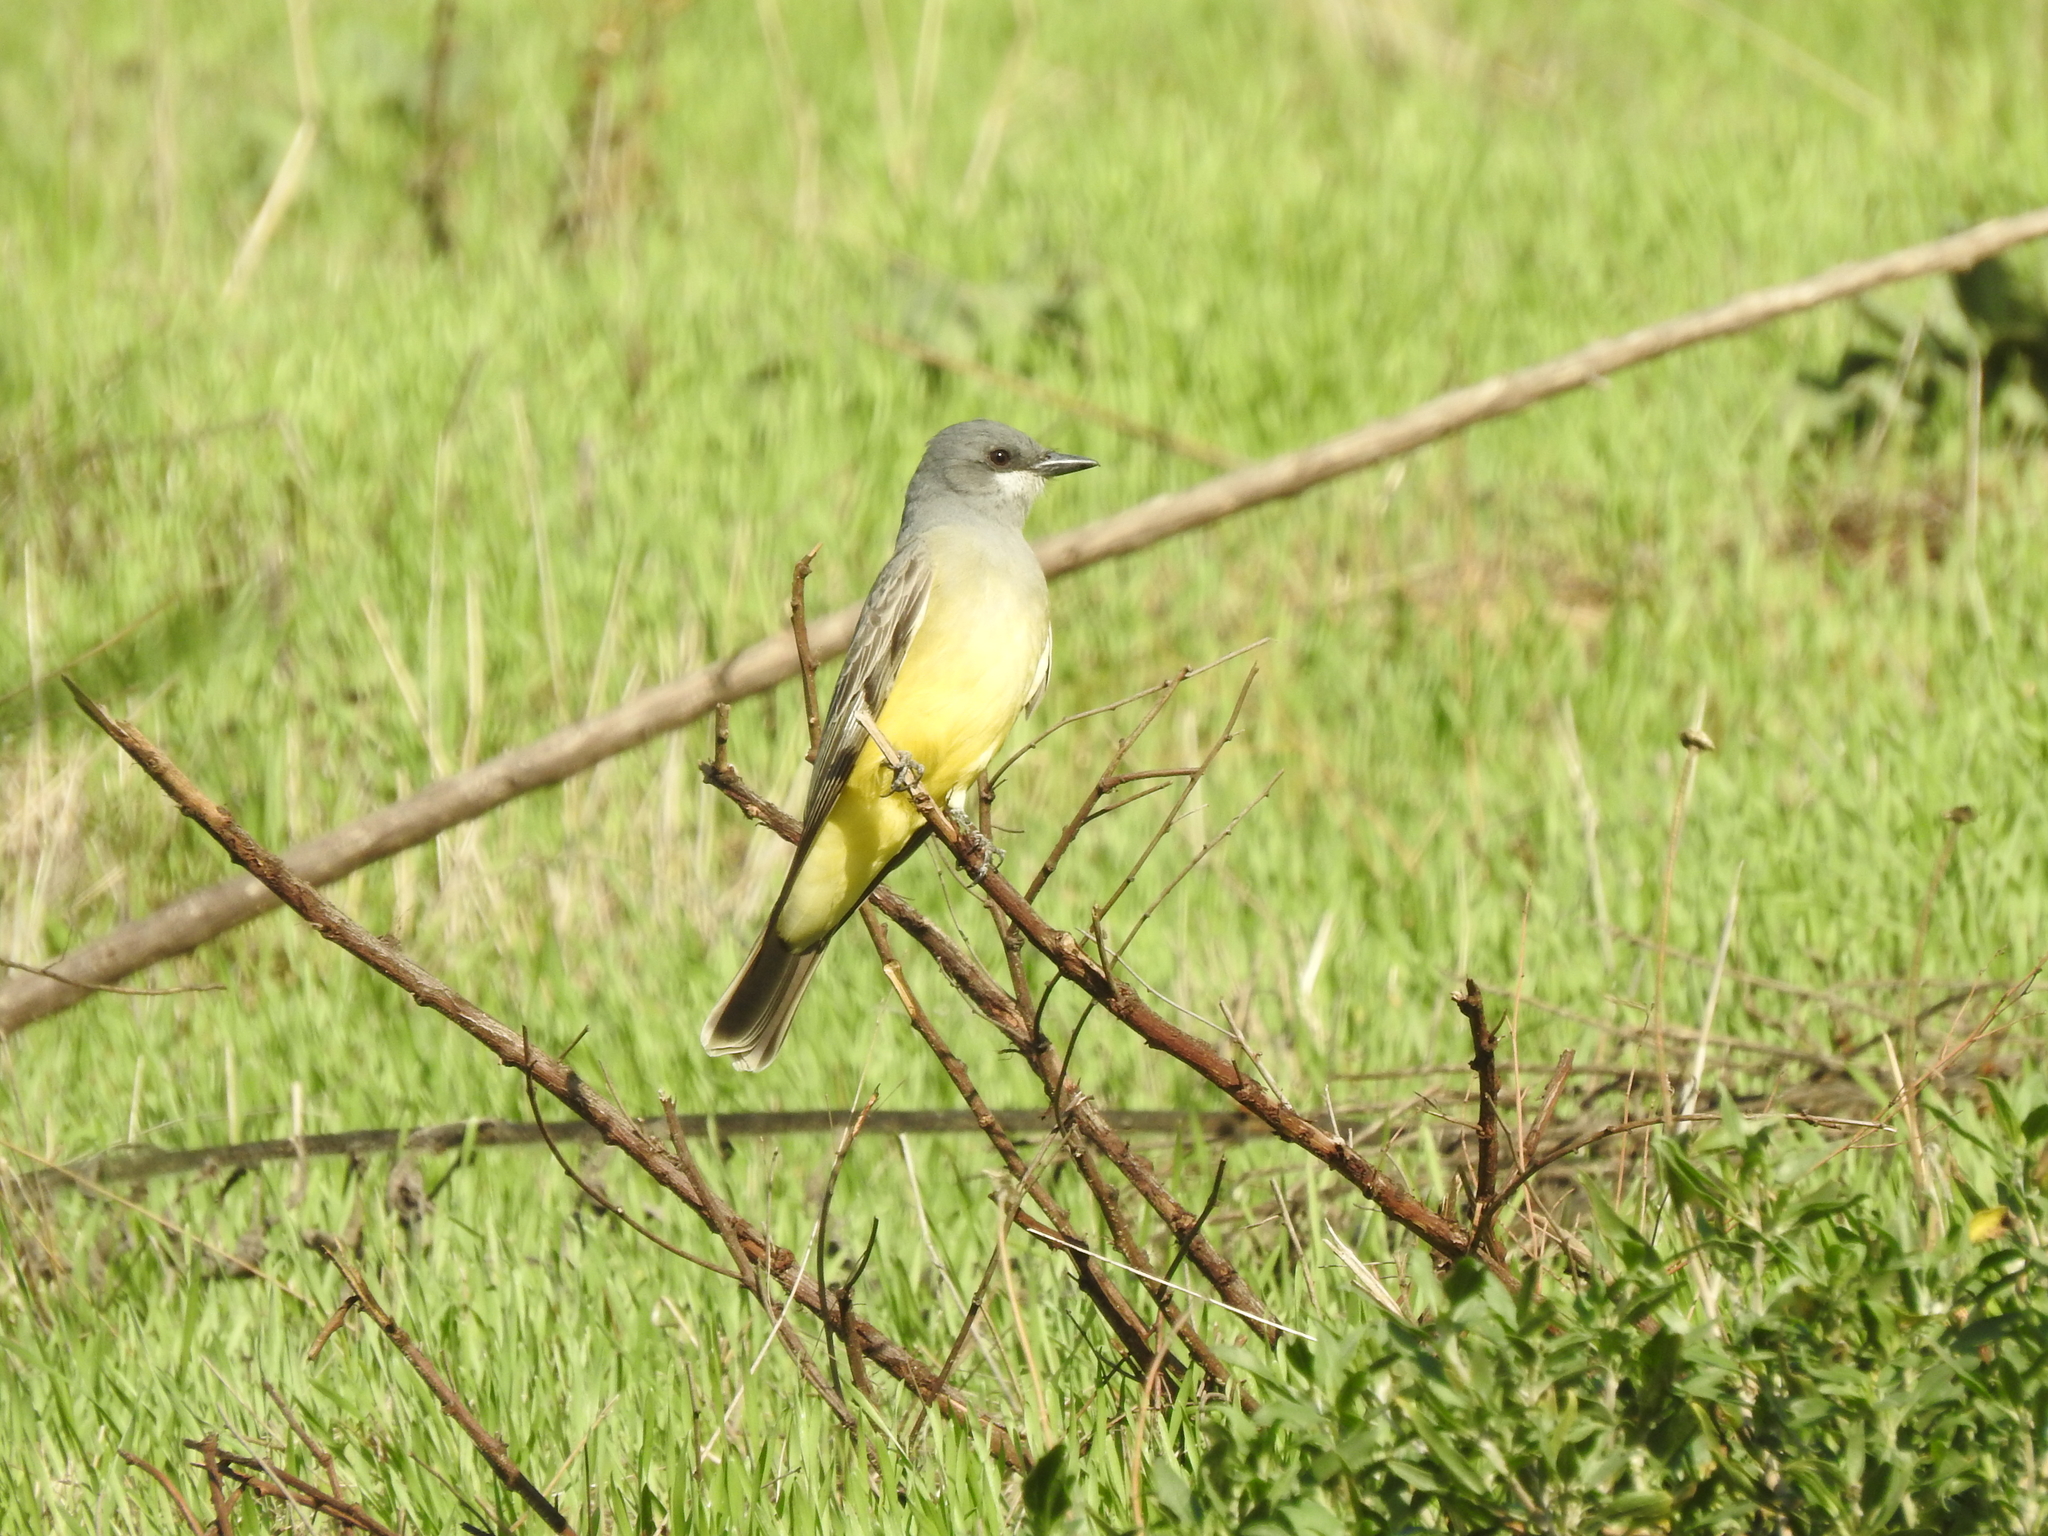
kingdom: Animalia
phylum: Chordata
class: Aves
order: Passeriformes
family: Tyrannidae
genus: Tyrannus
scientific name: Tyrannus vociferans
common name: Cassin's kingbird
